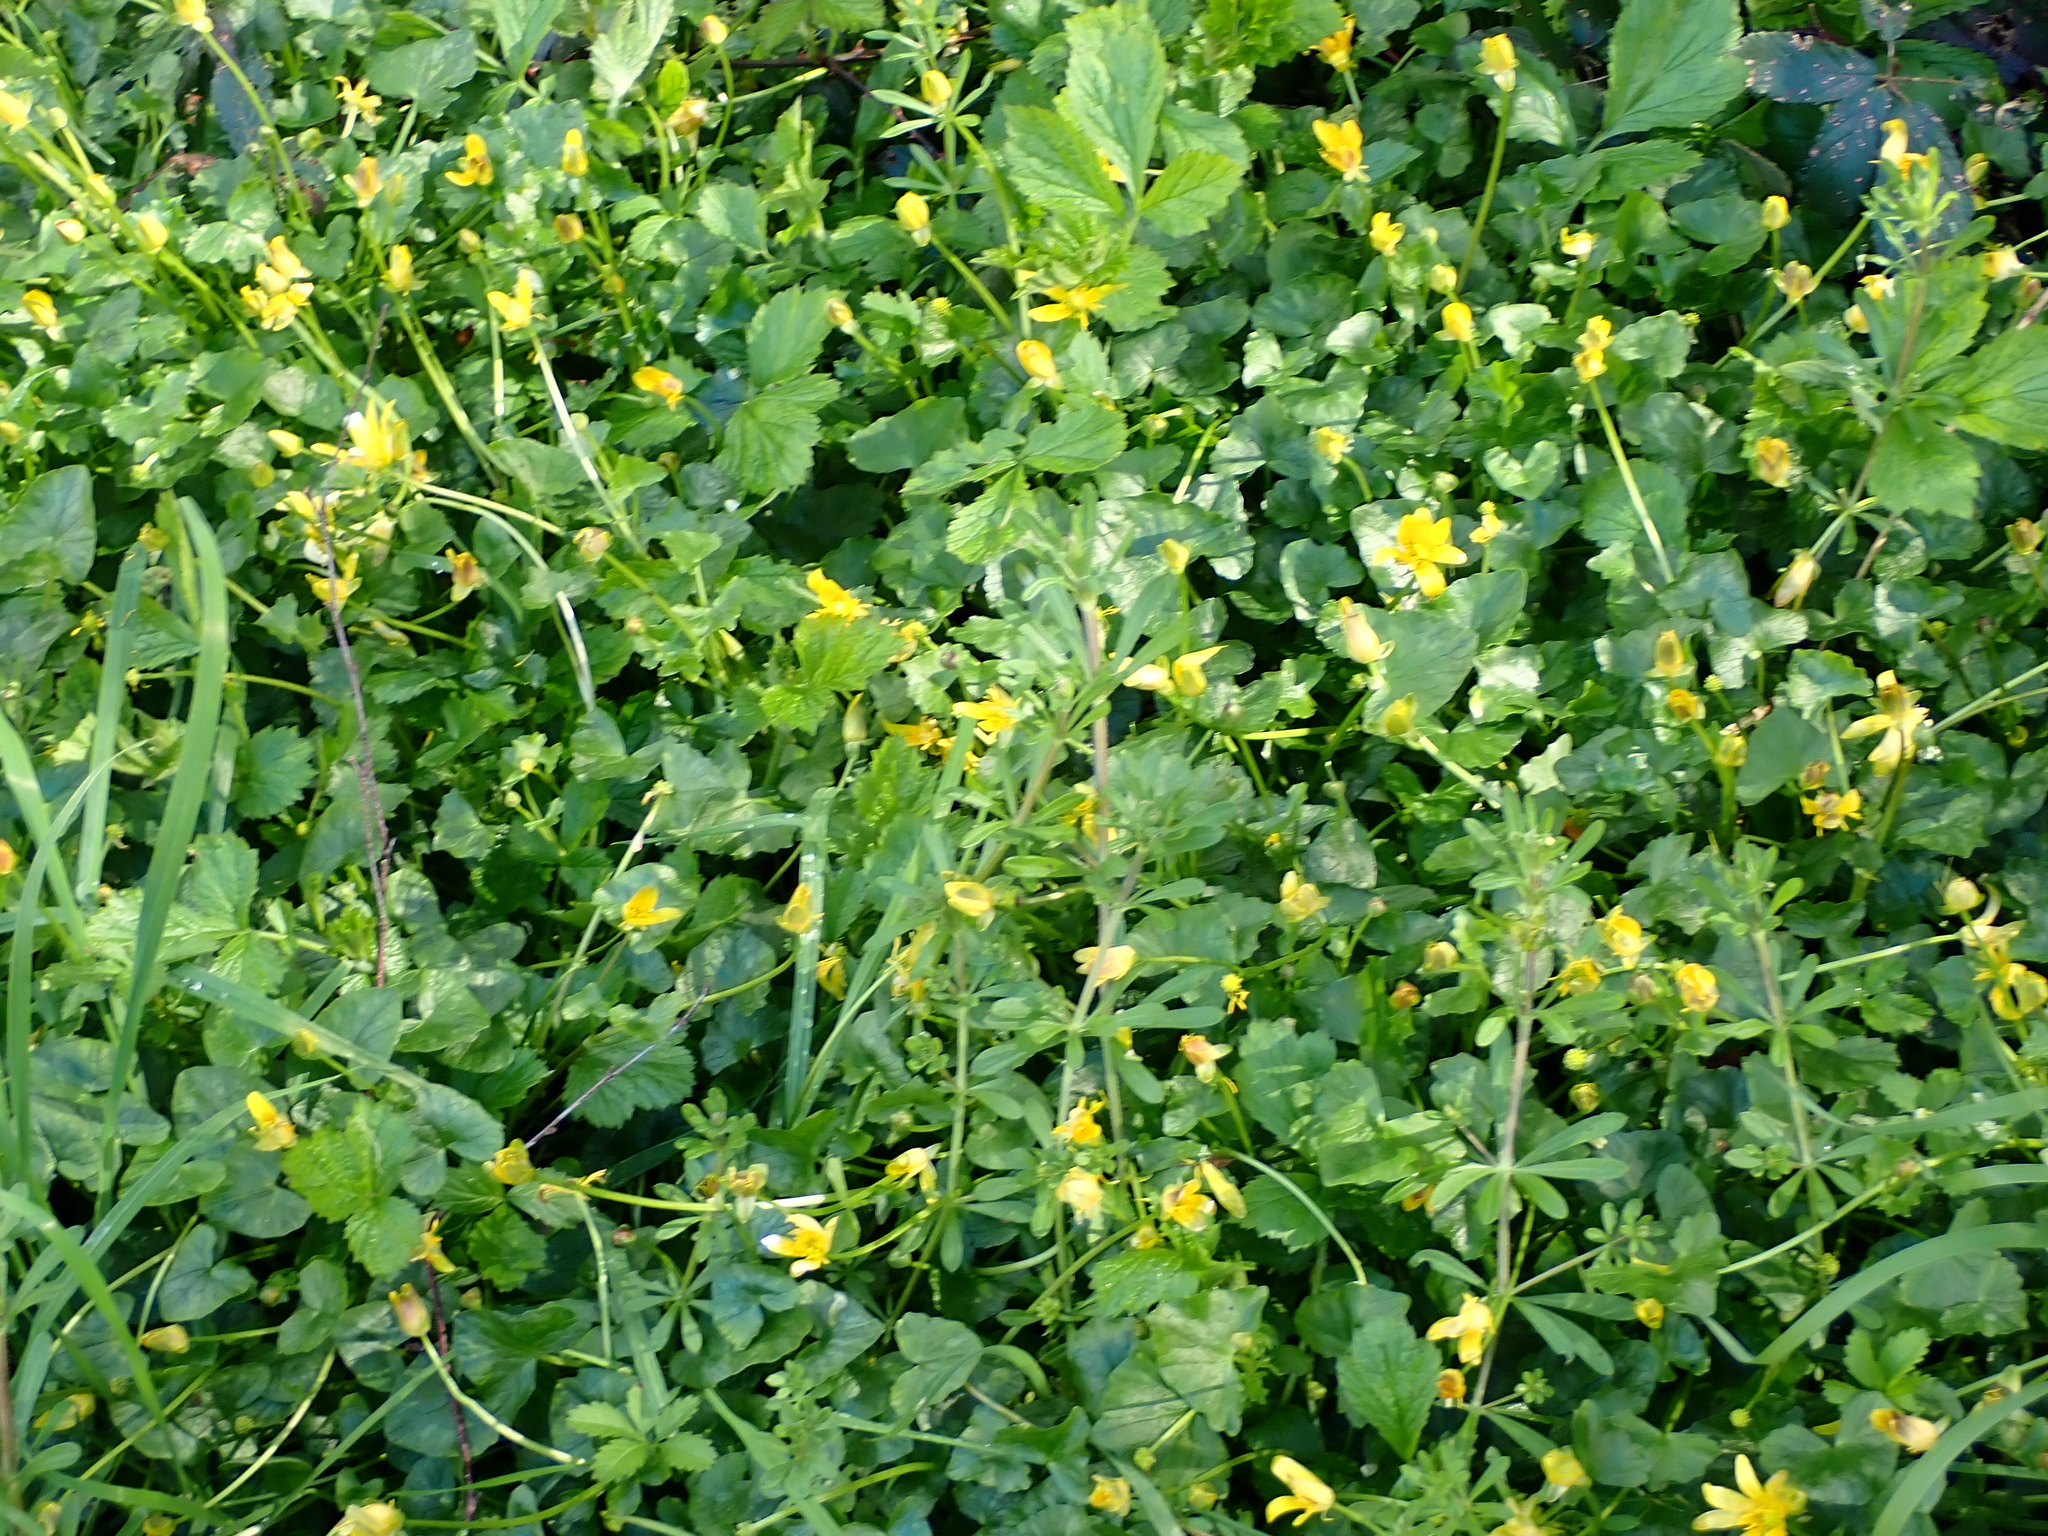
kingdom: Plantae
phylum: Tracheophyta
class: Magnoliopsida
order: Ranunculales
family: Ranunculaceae
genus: Ficaria
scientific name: Ficaria verna
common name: Lesser celandine
